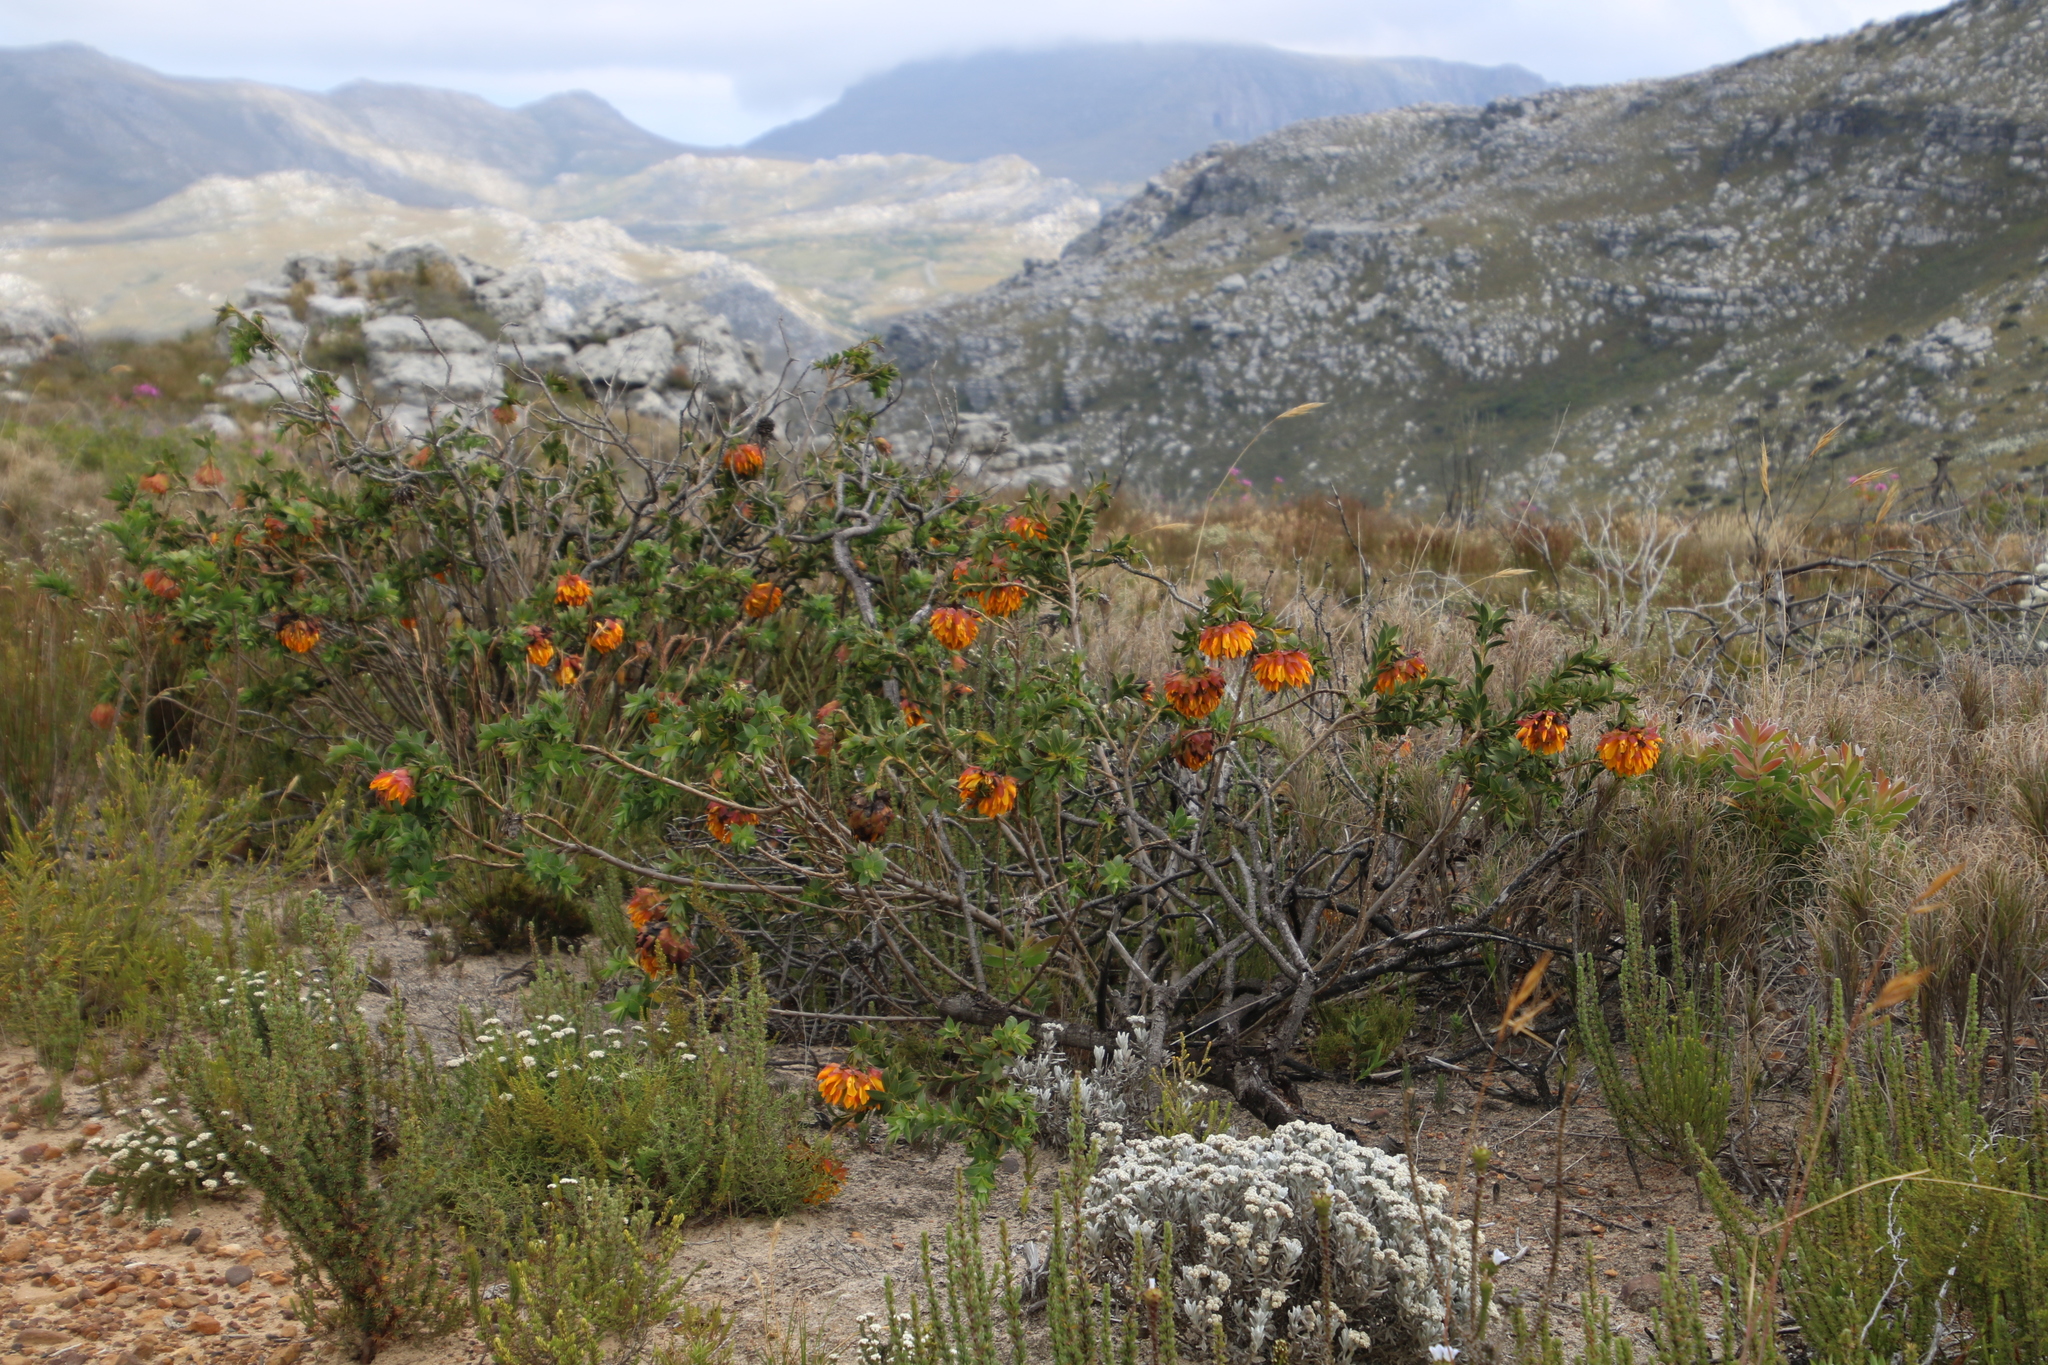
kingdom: Plantae
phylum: Tracheophyta
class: Magnoliopsida
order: Fabales
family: Fabaceae
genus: Liparia
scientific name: Liparia splendens
